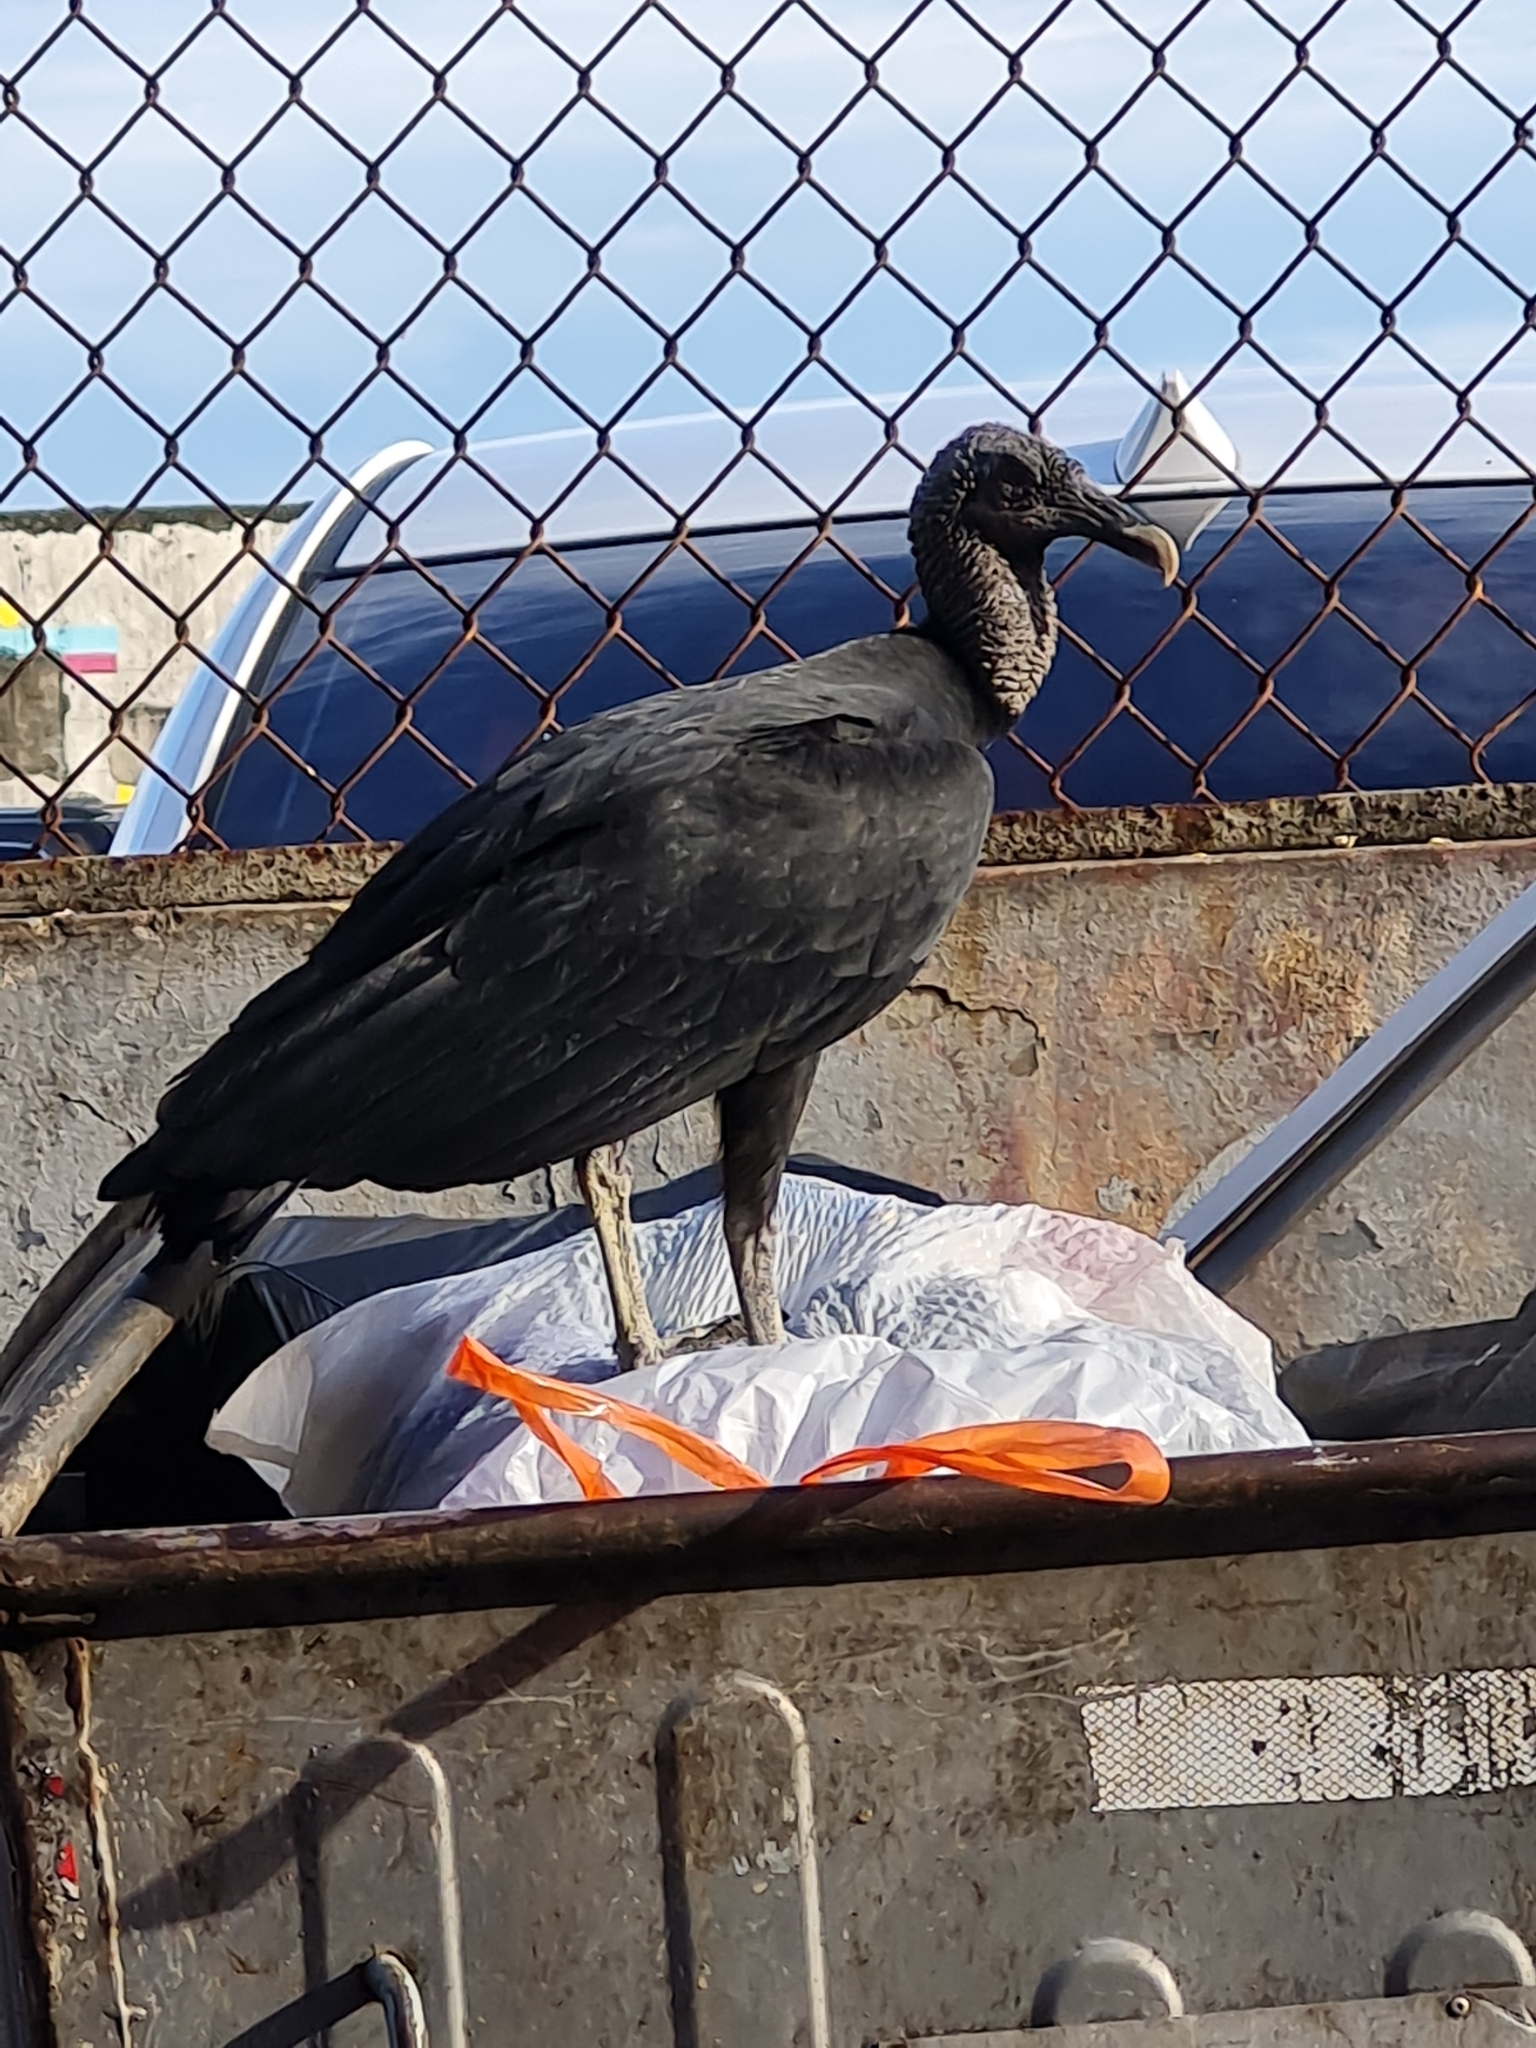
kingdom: Animalia
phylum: Chordata
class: Aves
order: Accipitriformes
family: Cathartidae
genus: Coragyps
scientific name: Coragyps atratus
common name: Black vulture
